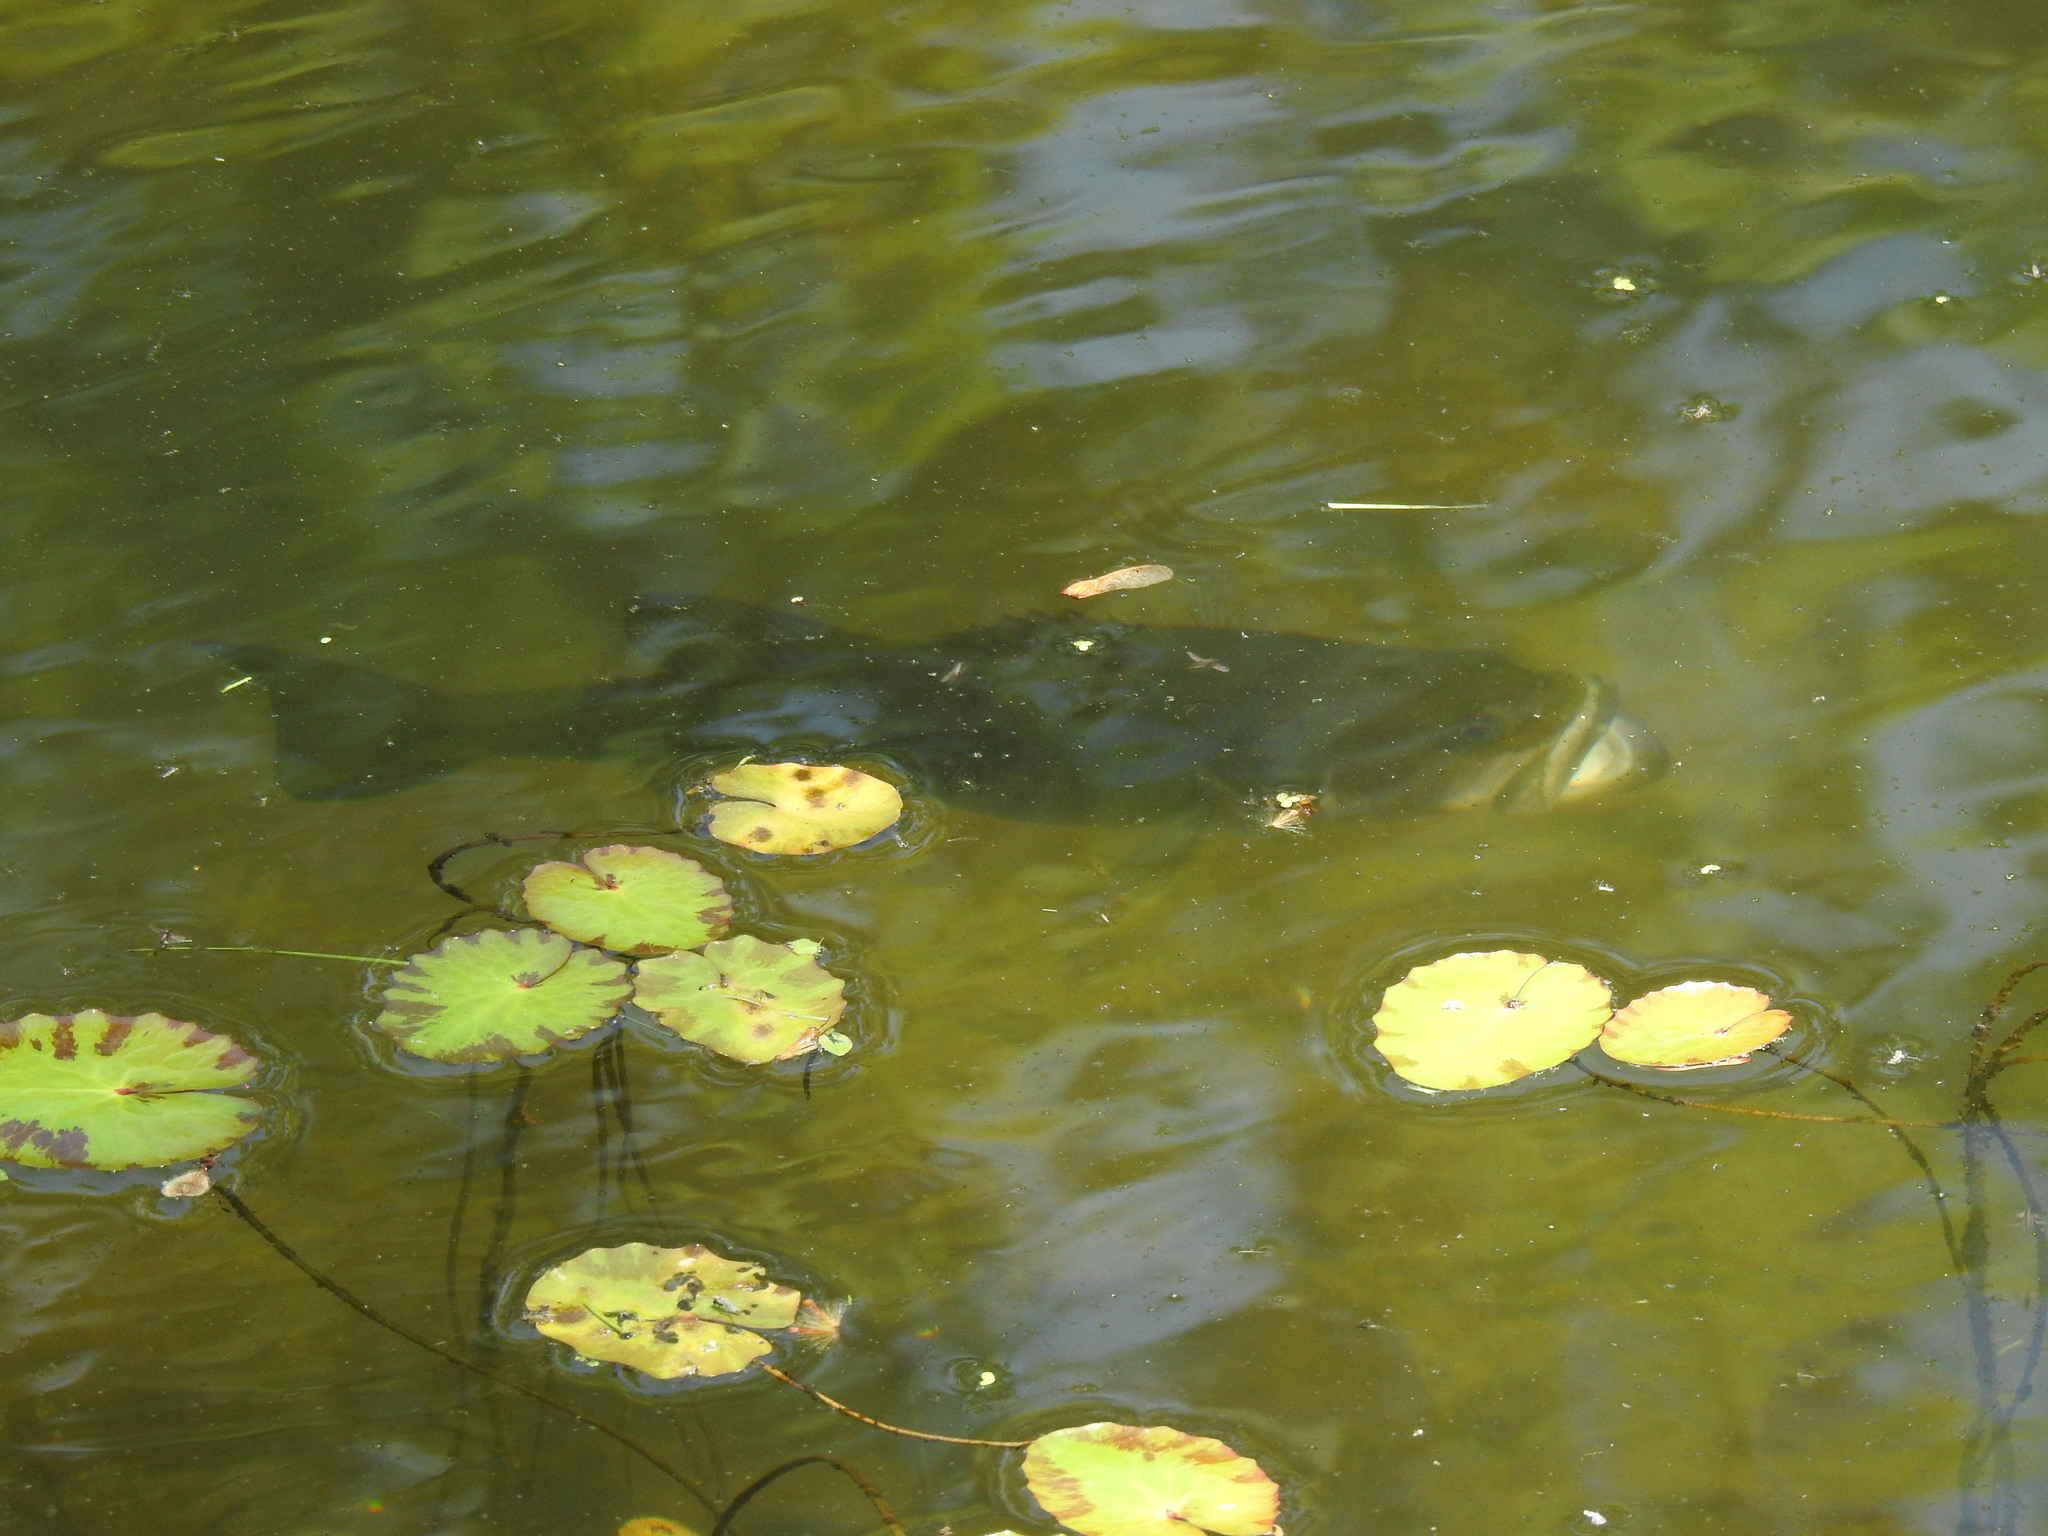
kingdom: Animalia
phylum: Chordata
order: Perciformes
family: Centrarchidae
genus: Micropterus
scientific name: Micropterus
